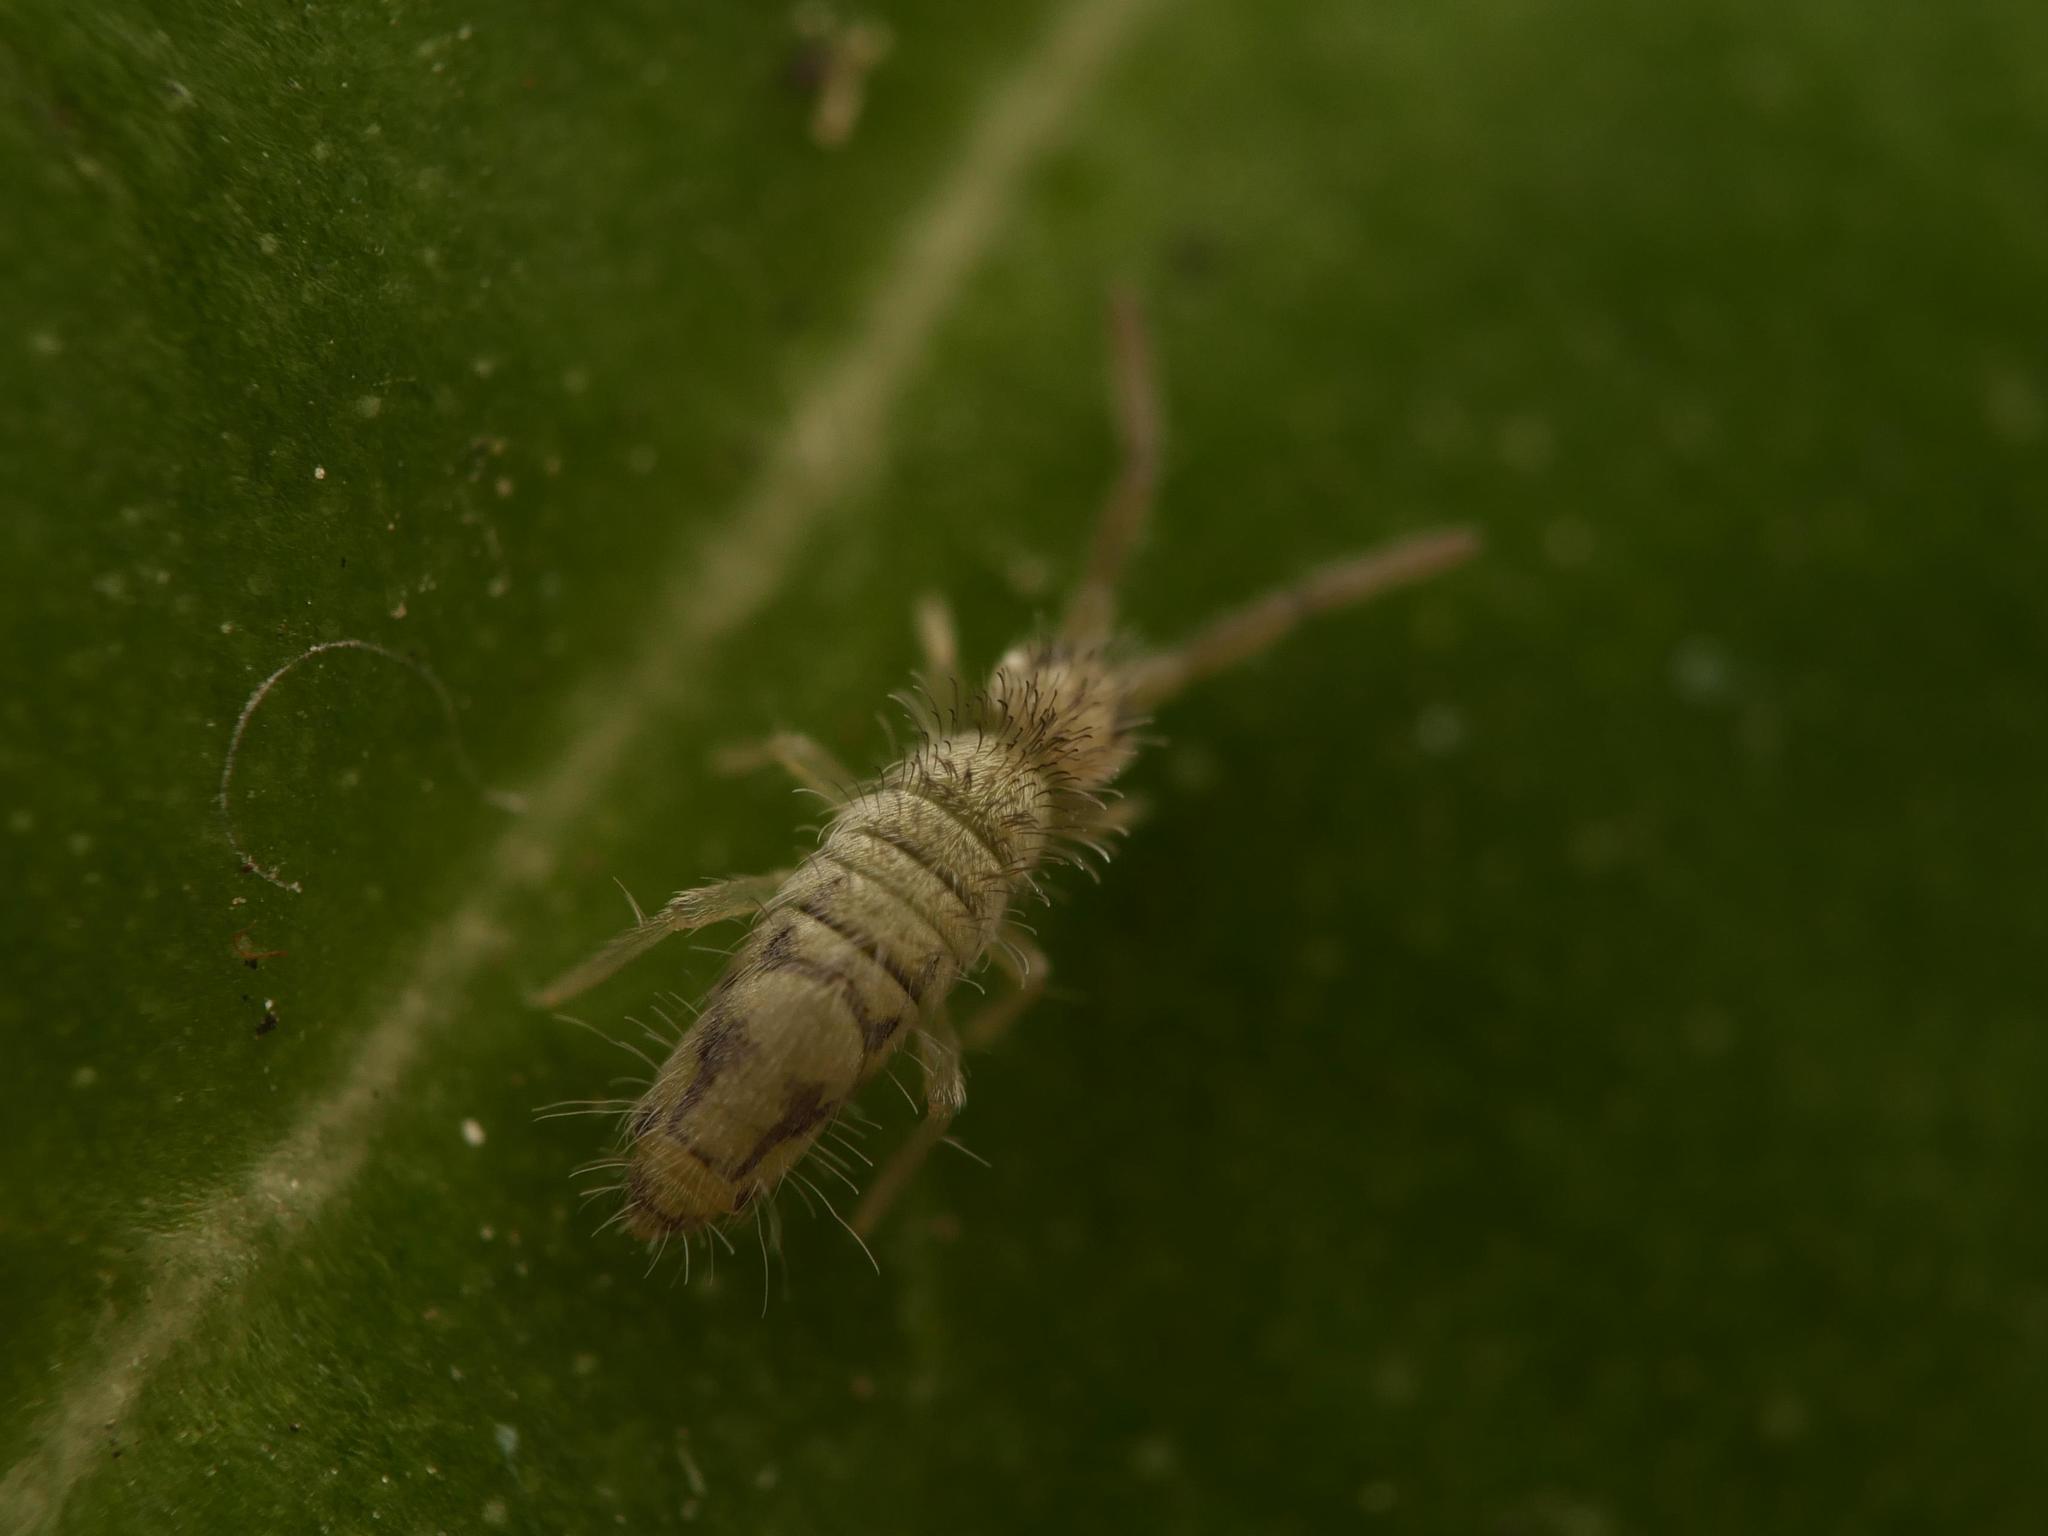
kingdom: Animalia
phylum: Arthropoda
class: Collembola
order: Entomobryomorpha
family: Entomobryidae
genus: Entomobrya
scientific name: Entomobrya nivalis
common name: Cosmopolitan springtail
